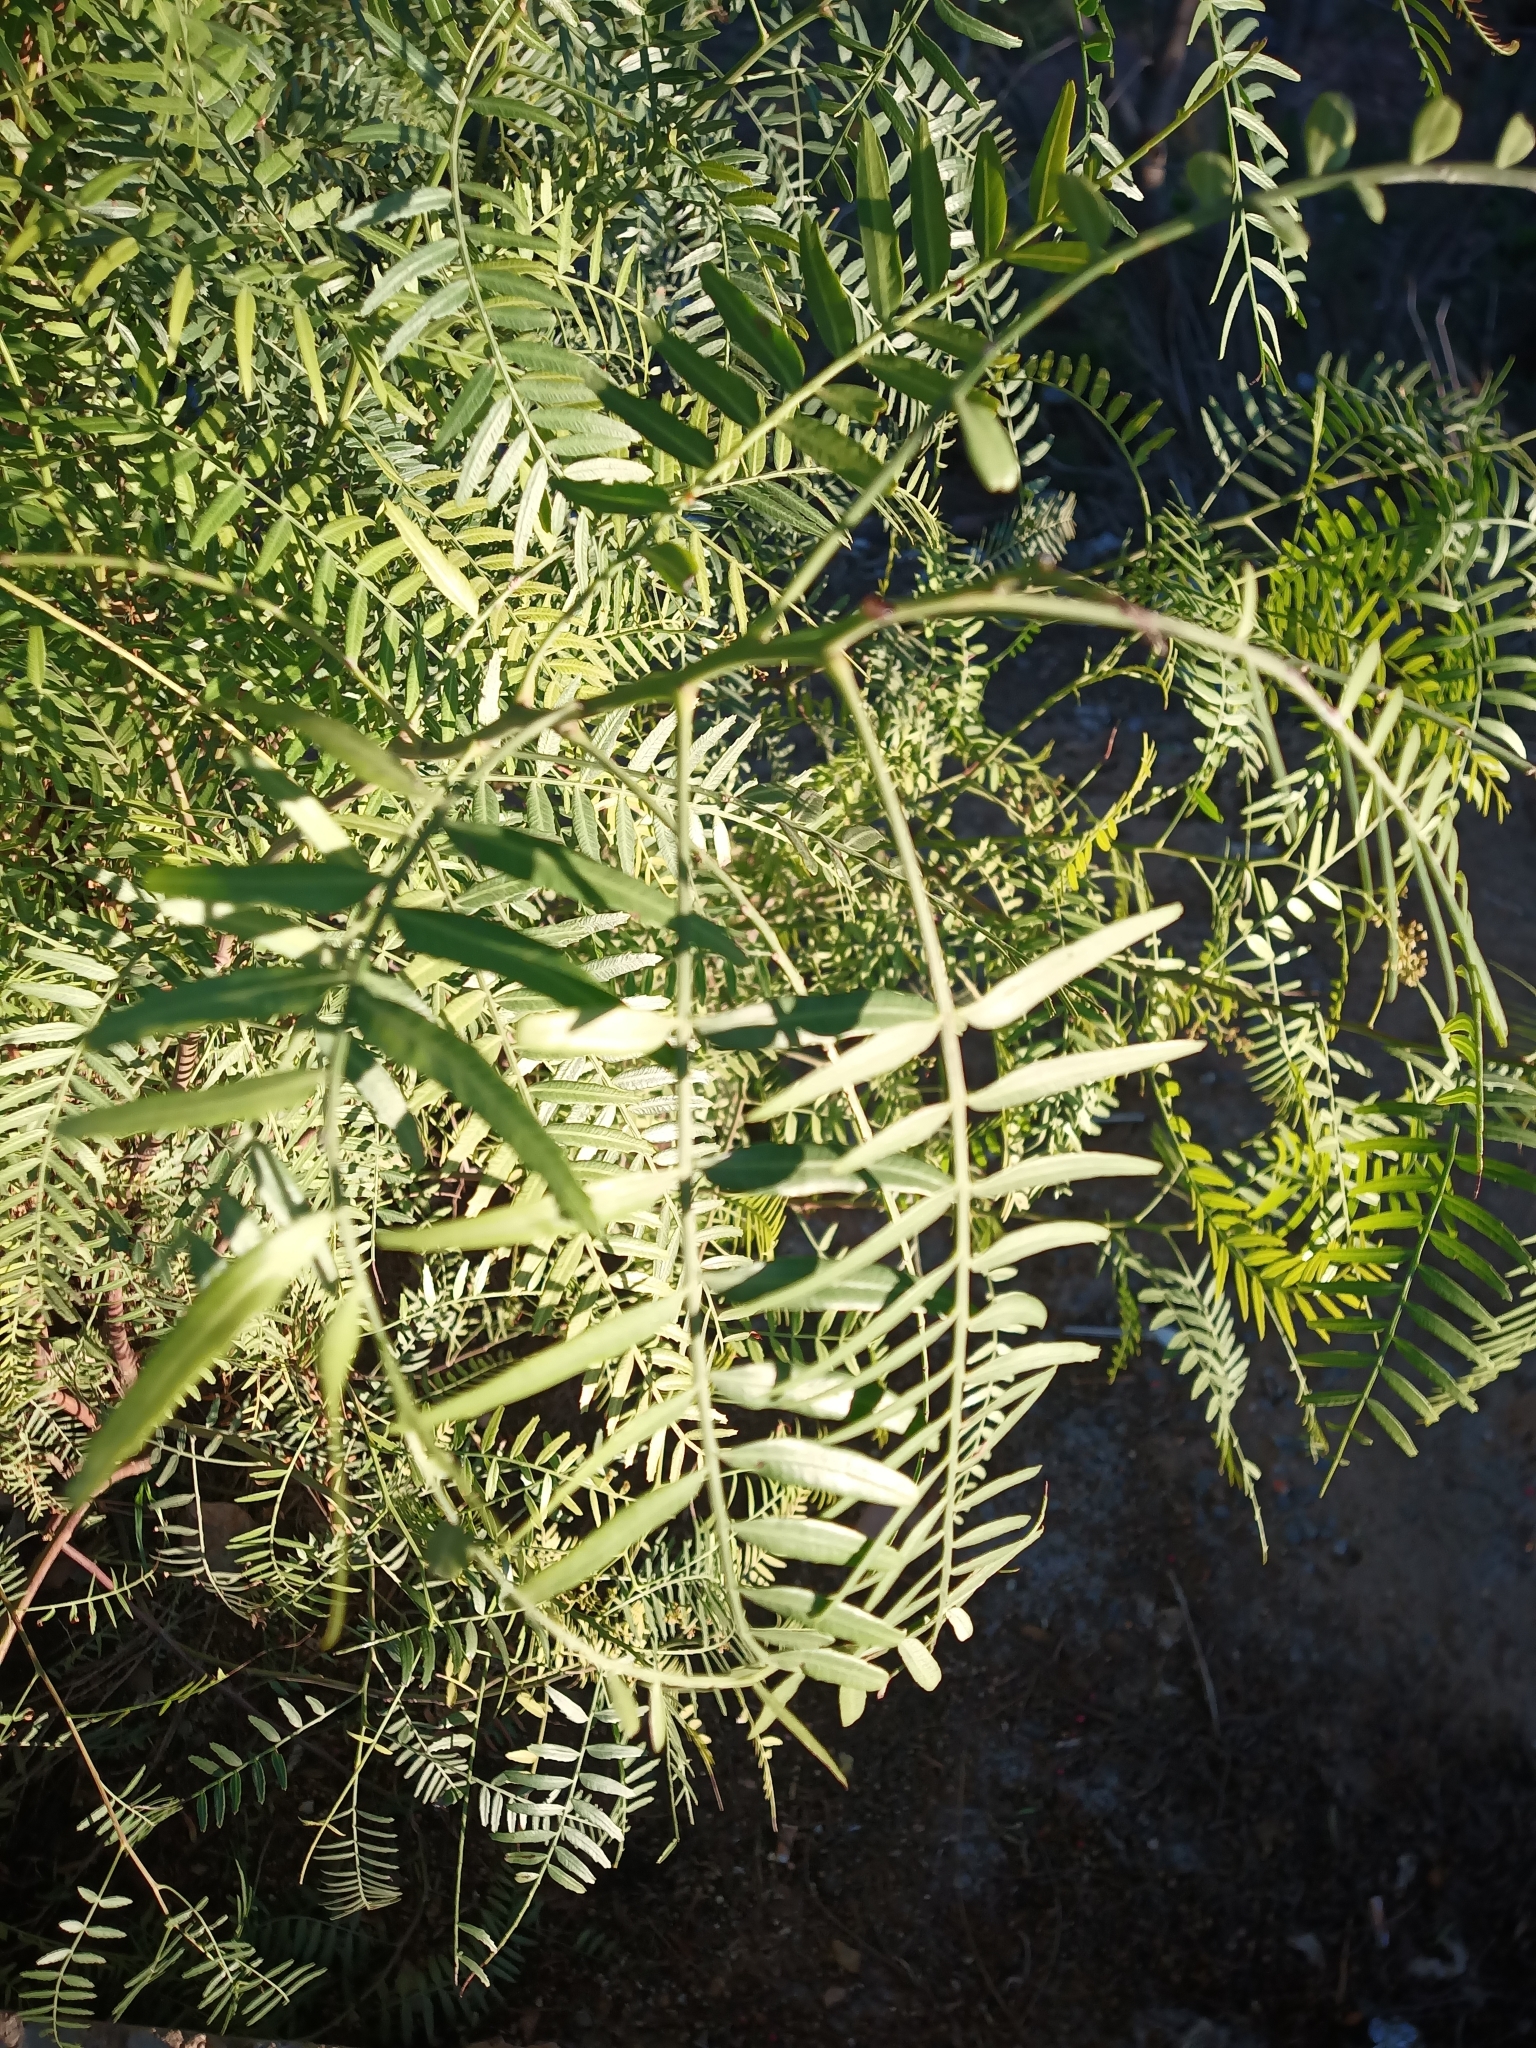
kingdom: Plantae
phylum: Tracheophyta
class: Magnoliopsida
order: Sapindales
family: Anacardiaceae
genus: Schinus
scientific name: Schinus molle
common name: Peruvian peppertree
